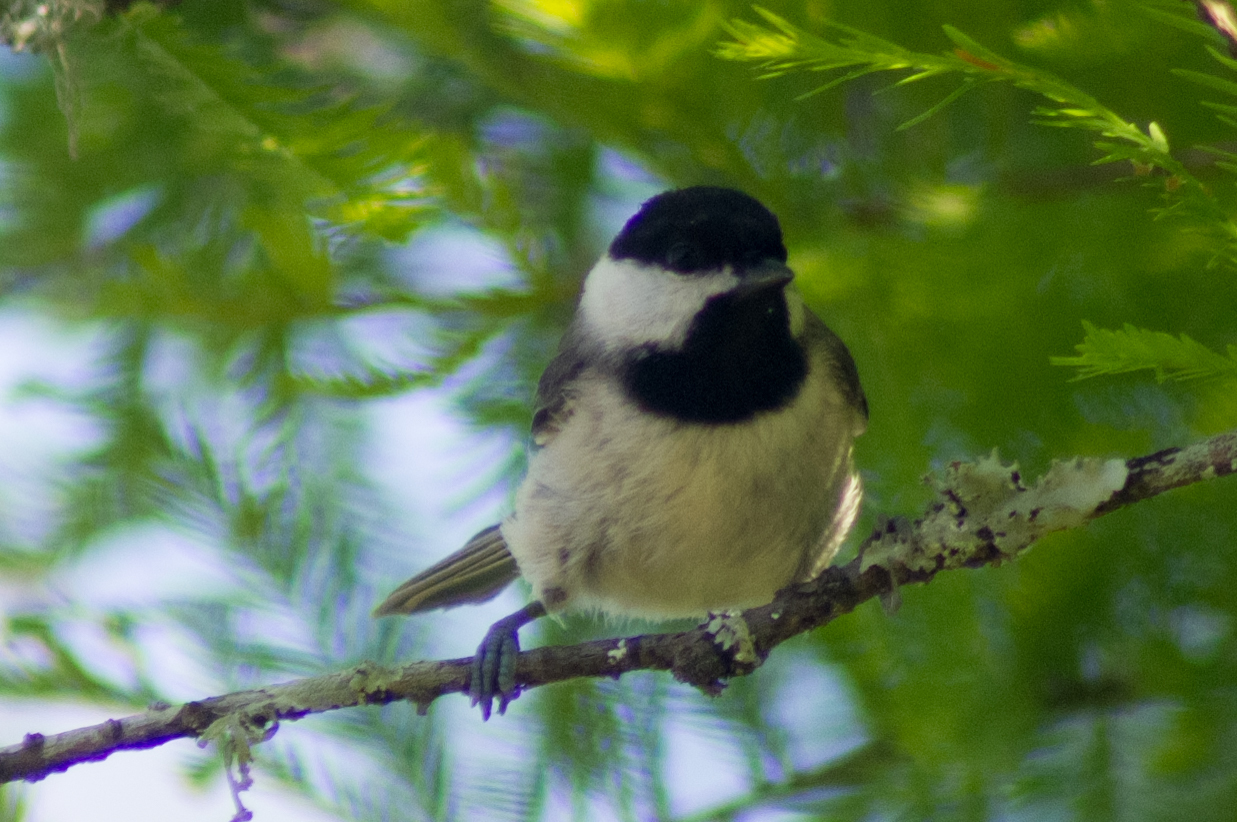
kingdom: Animalia
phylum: Chordata
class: Aves
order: Passeriformes
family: Paridae
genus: Poecile
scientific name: Poecile carolinensis
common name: Carolina chickadee
